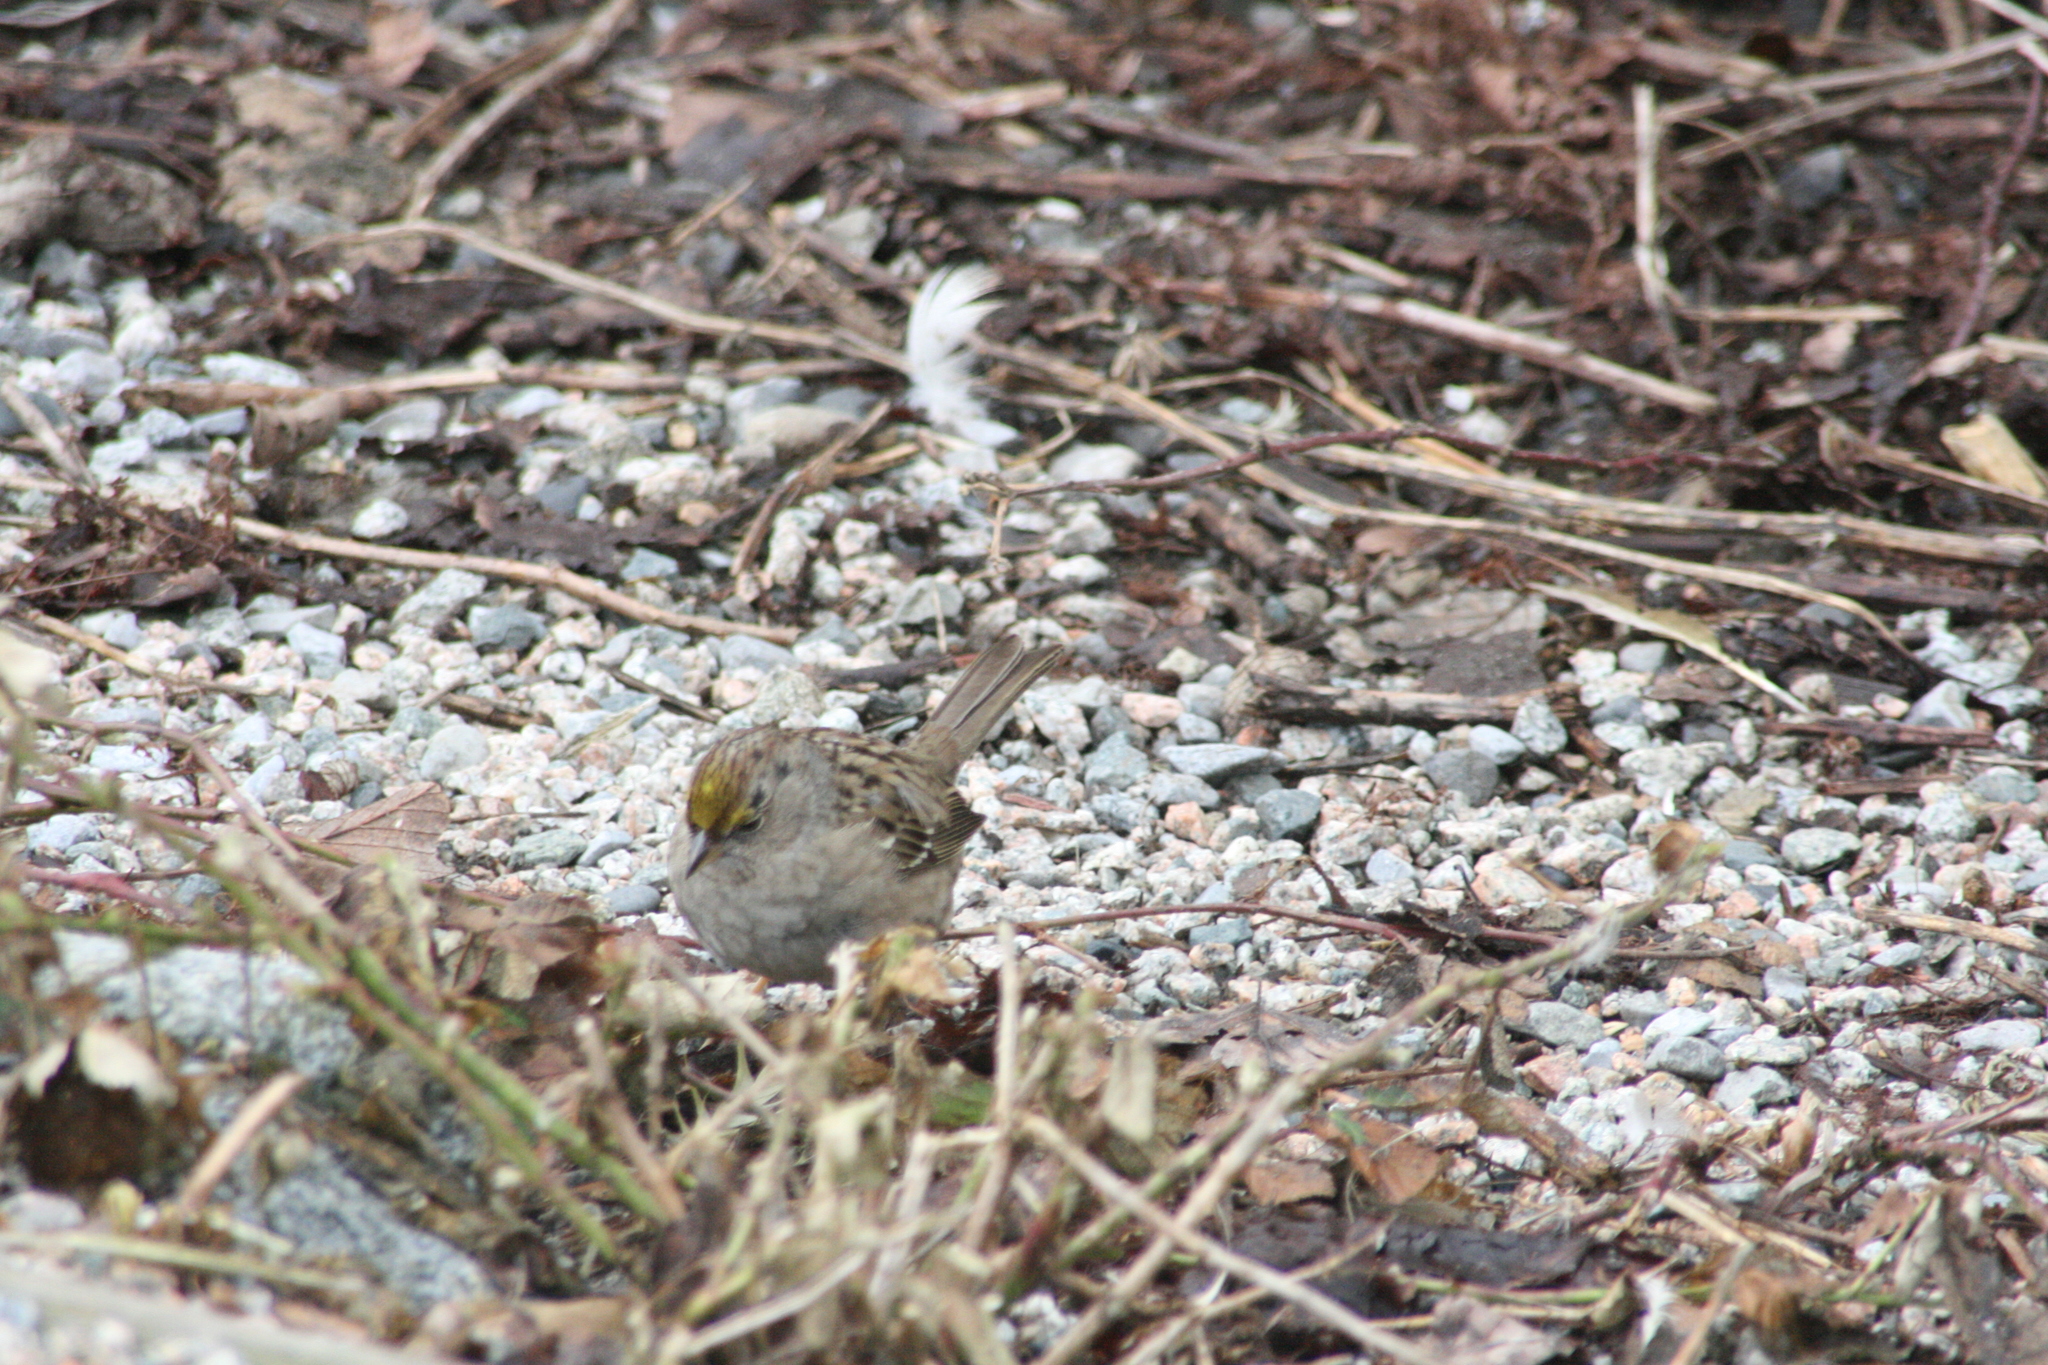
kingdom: Animalia
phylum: Chordata
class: Aves
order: Passeriformes
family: Passerellidae
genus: Zonotrichia
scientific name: Zonotrichia atricapilla
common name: Golden-crowned sparrow
